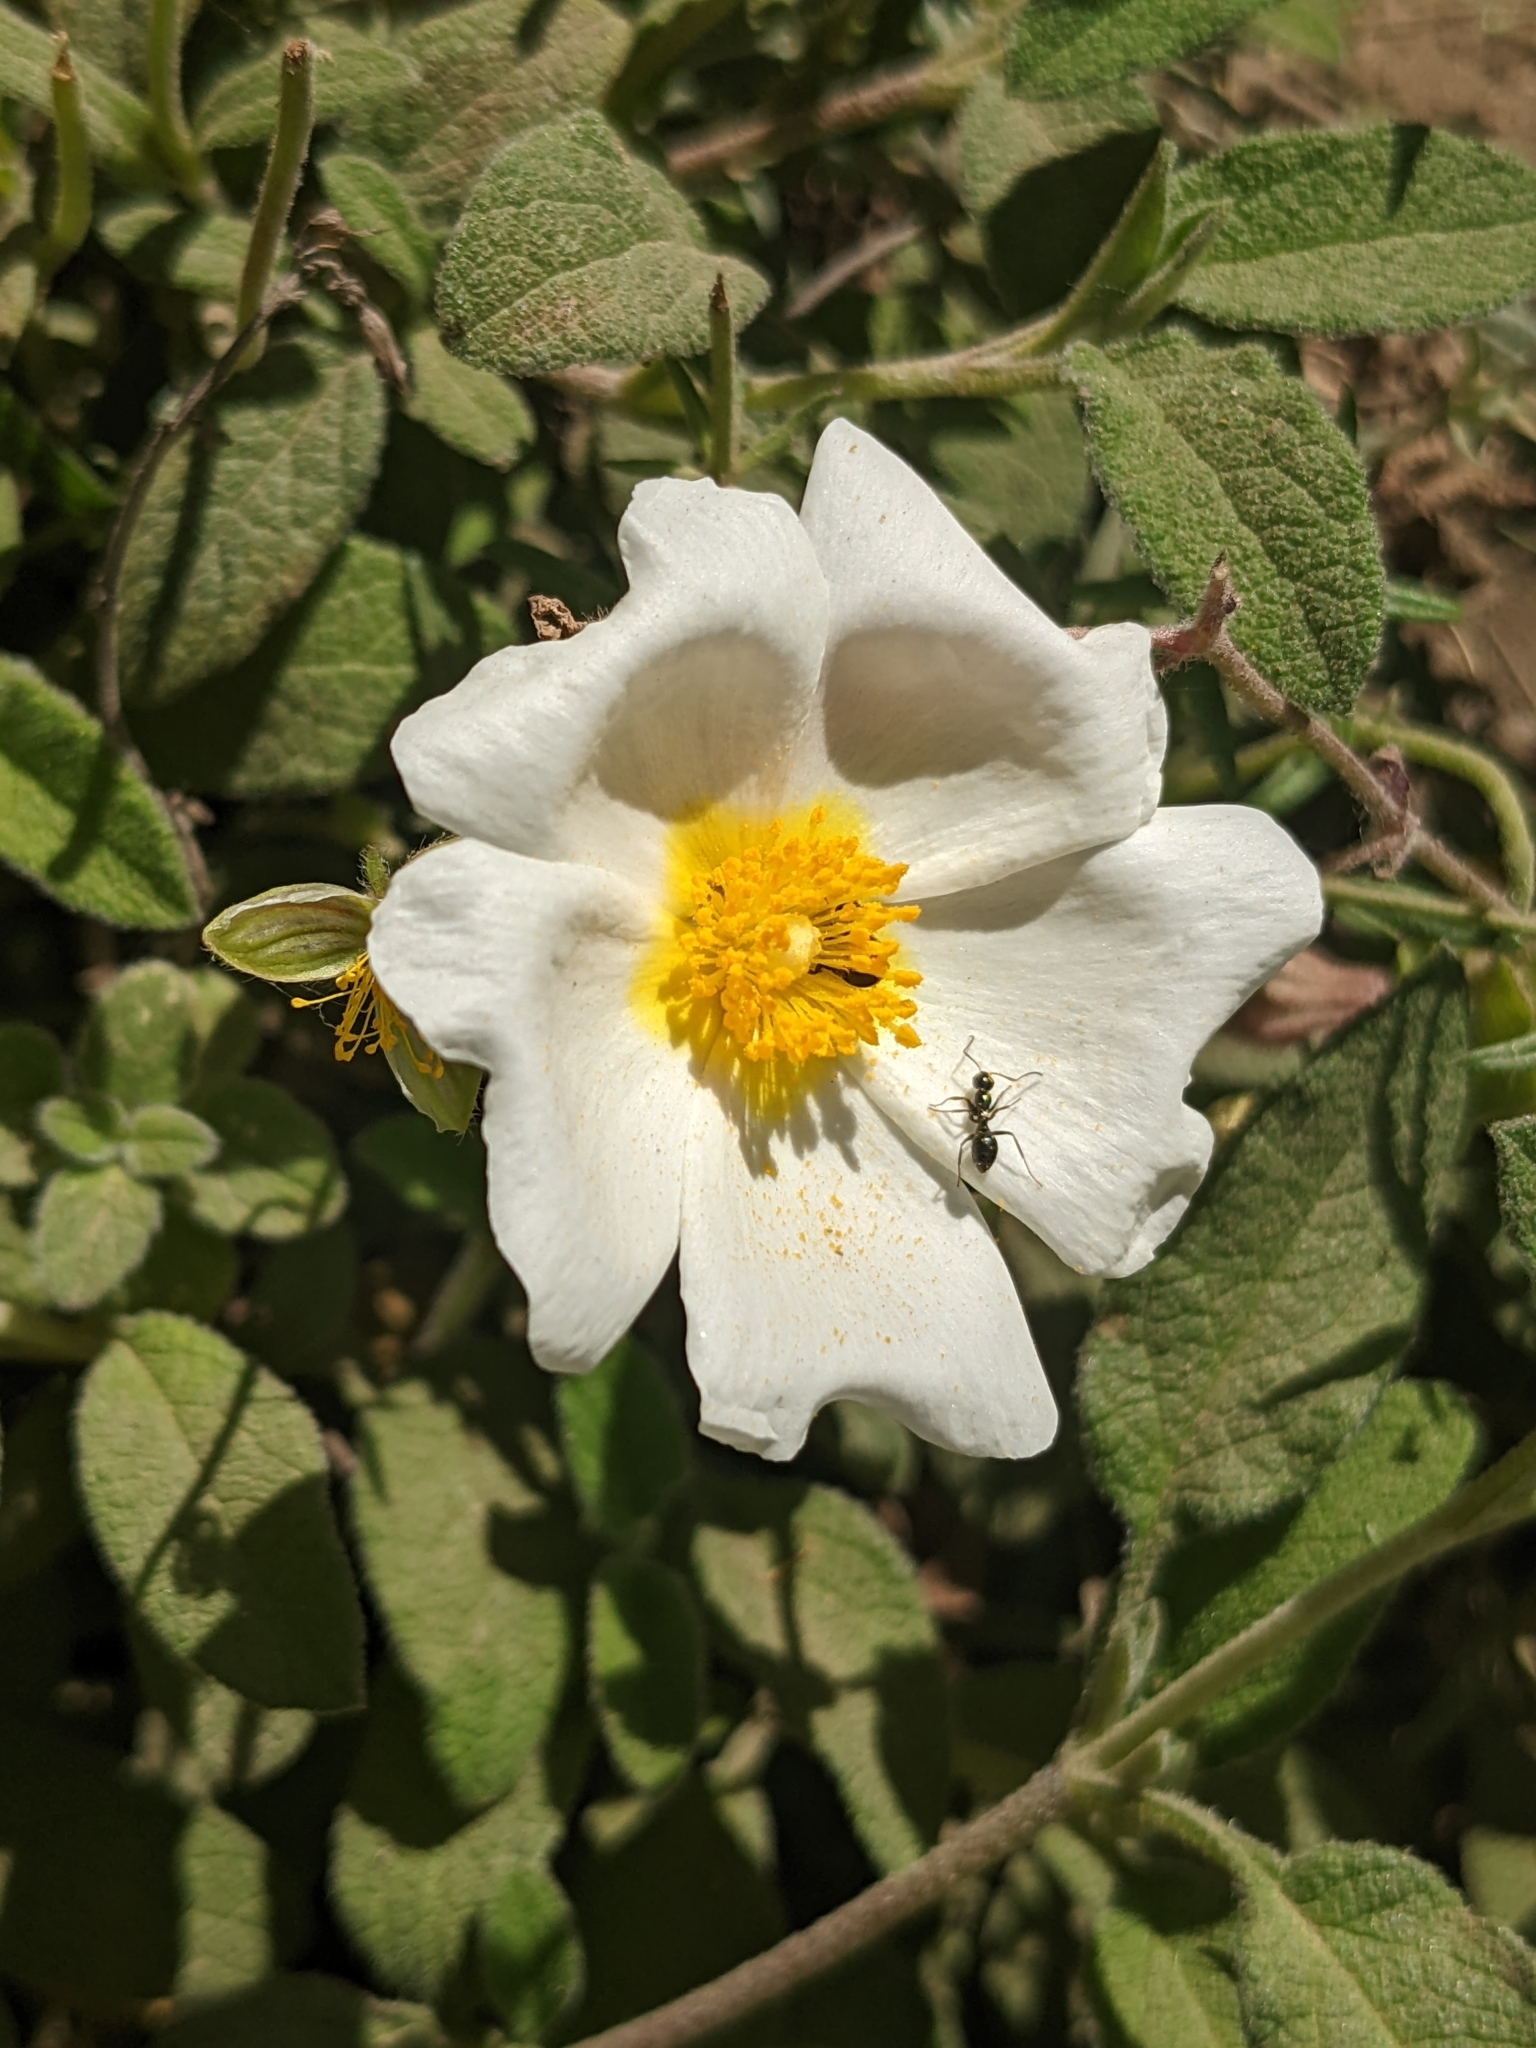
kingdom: Plantae
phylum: Tracheophyta
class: Magnoliopsida
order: Malvales
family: Cistaceae
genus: Cistus
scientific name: Cistus salviifolius
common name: Salvia cistus
